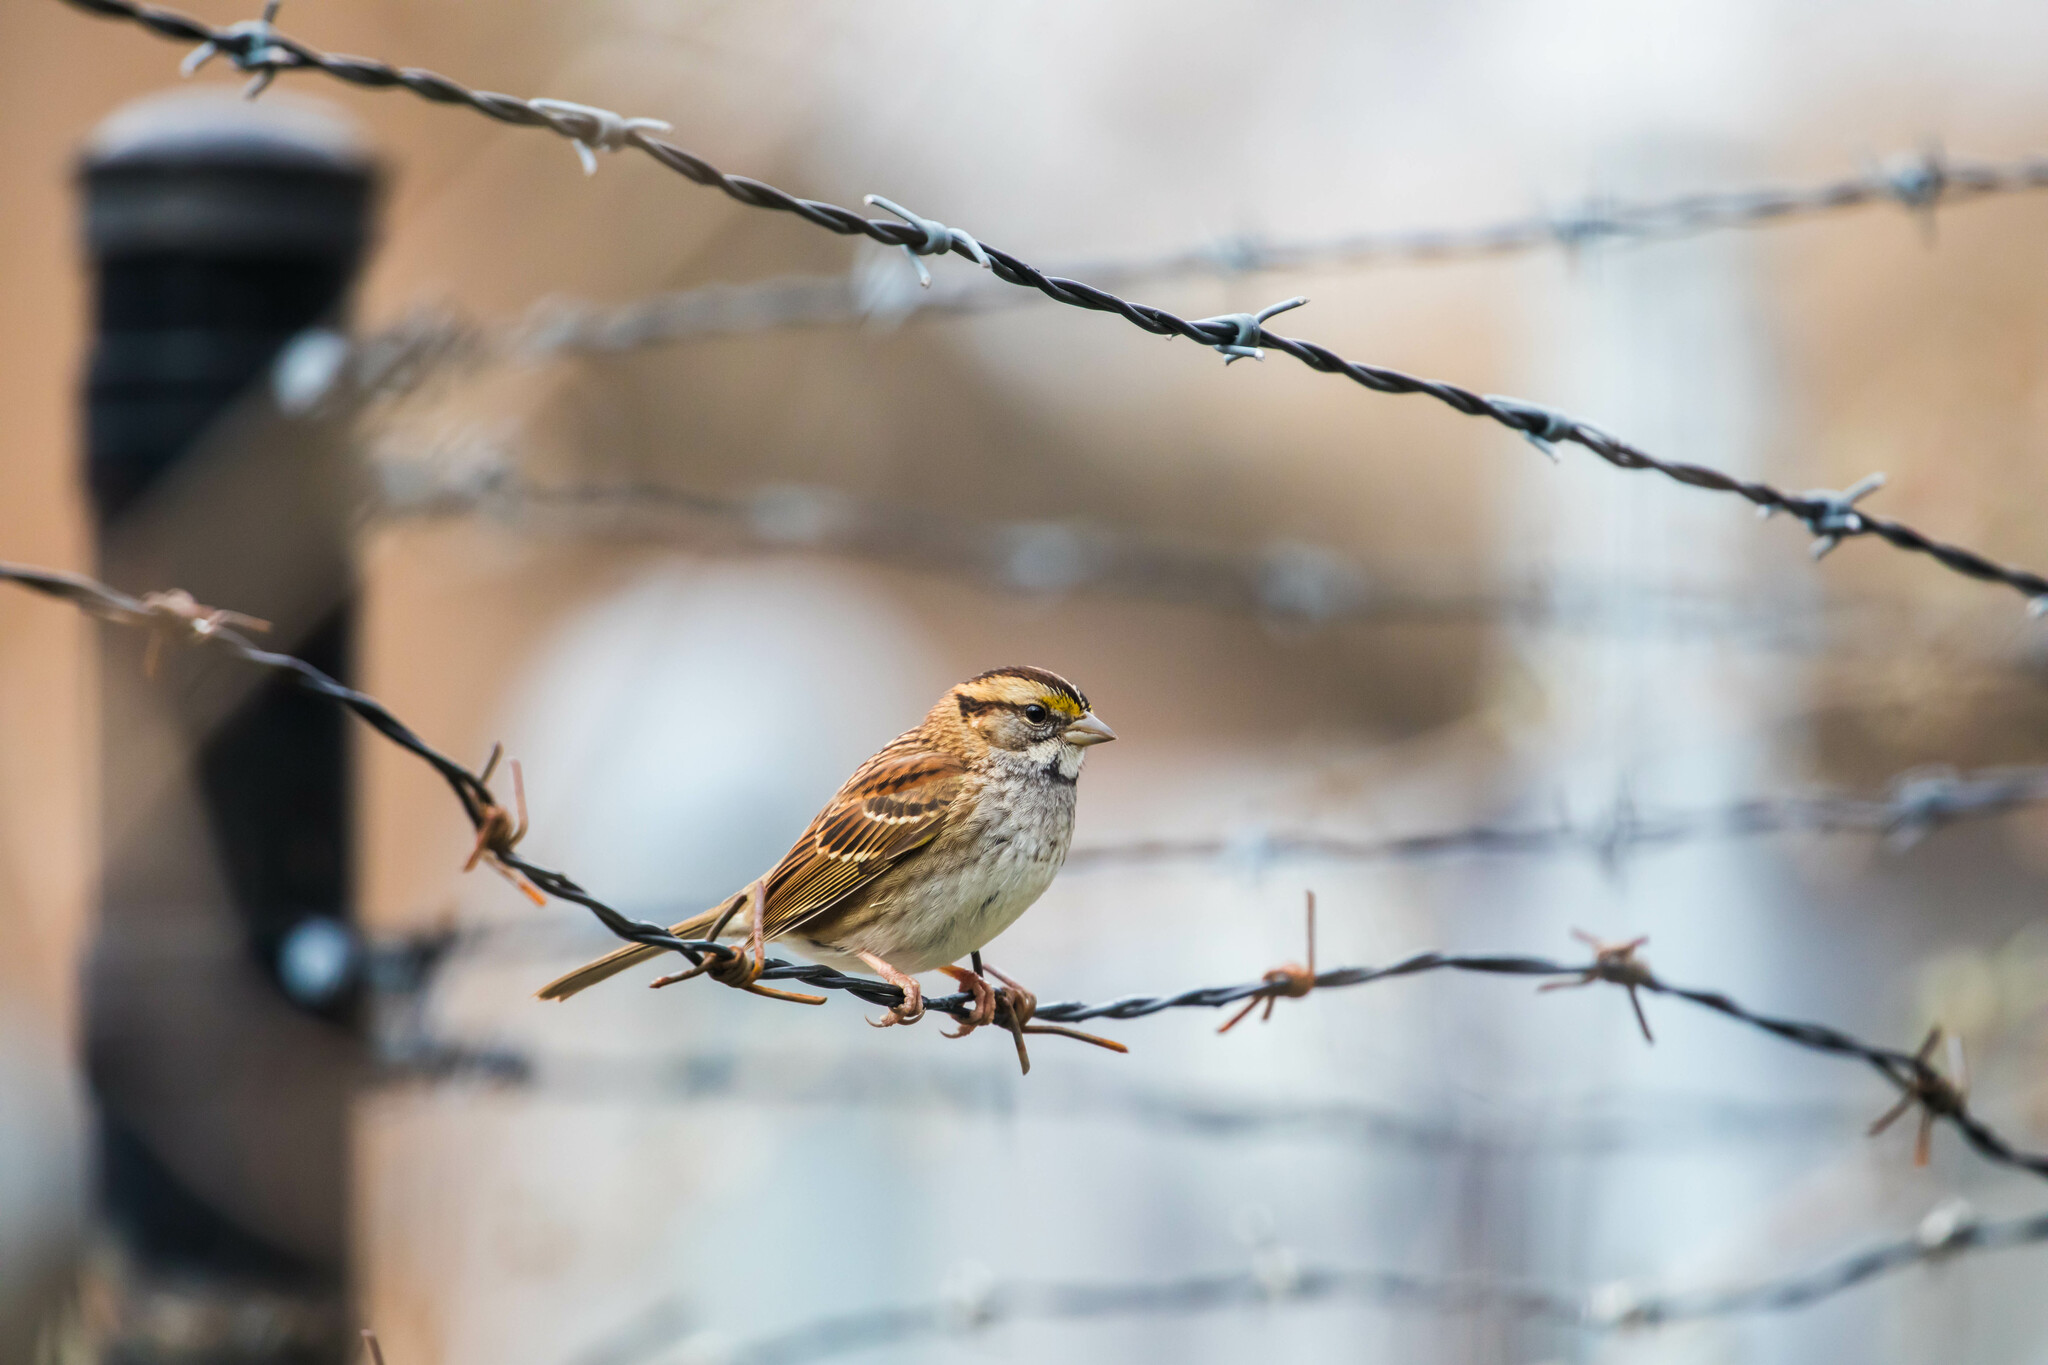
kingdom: Animalia
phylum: Chordata
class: Aves
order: Passeriformes
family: Passerellidae
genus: Zonotrichia
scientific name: Zonotrichia albicollis
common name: White-throated sparrow
